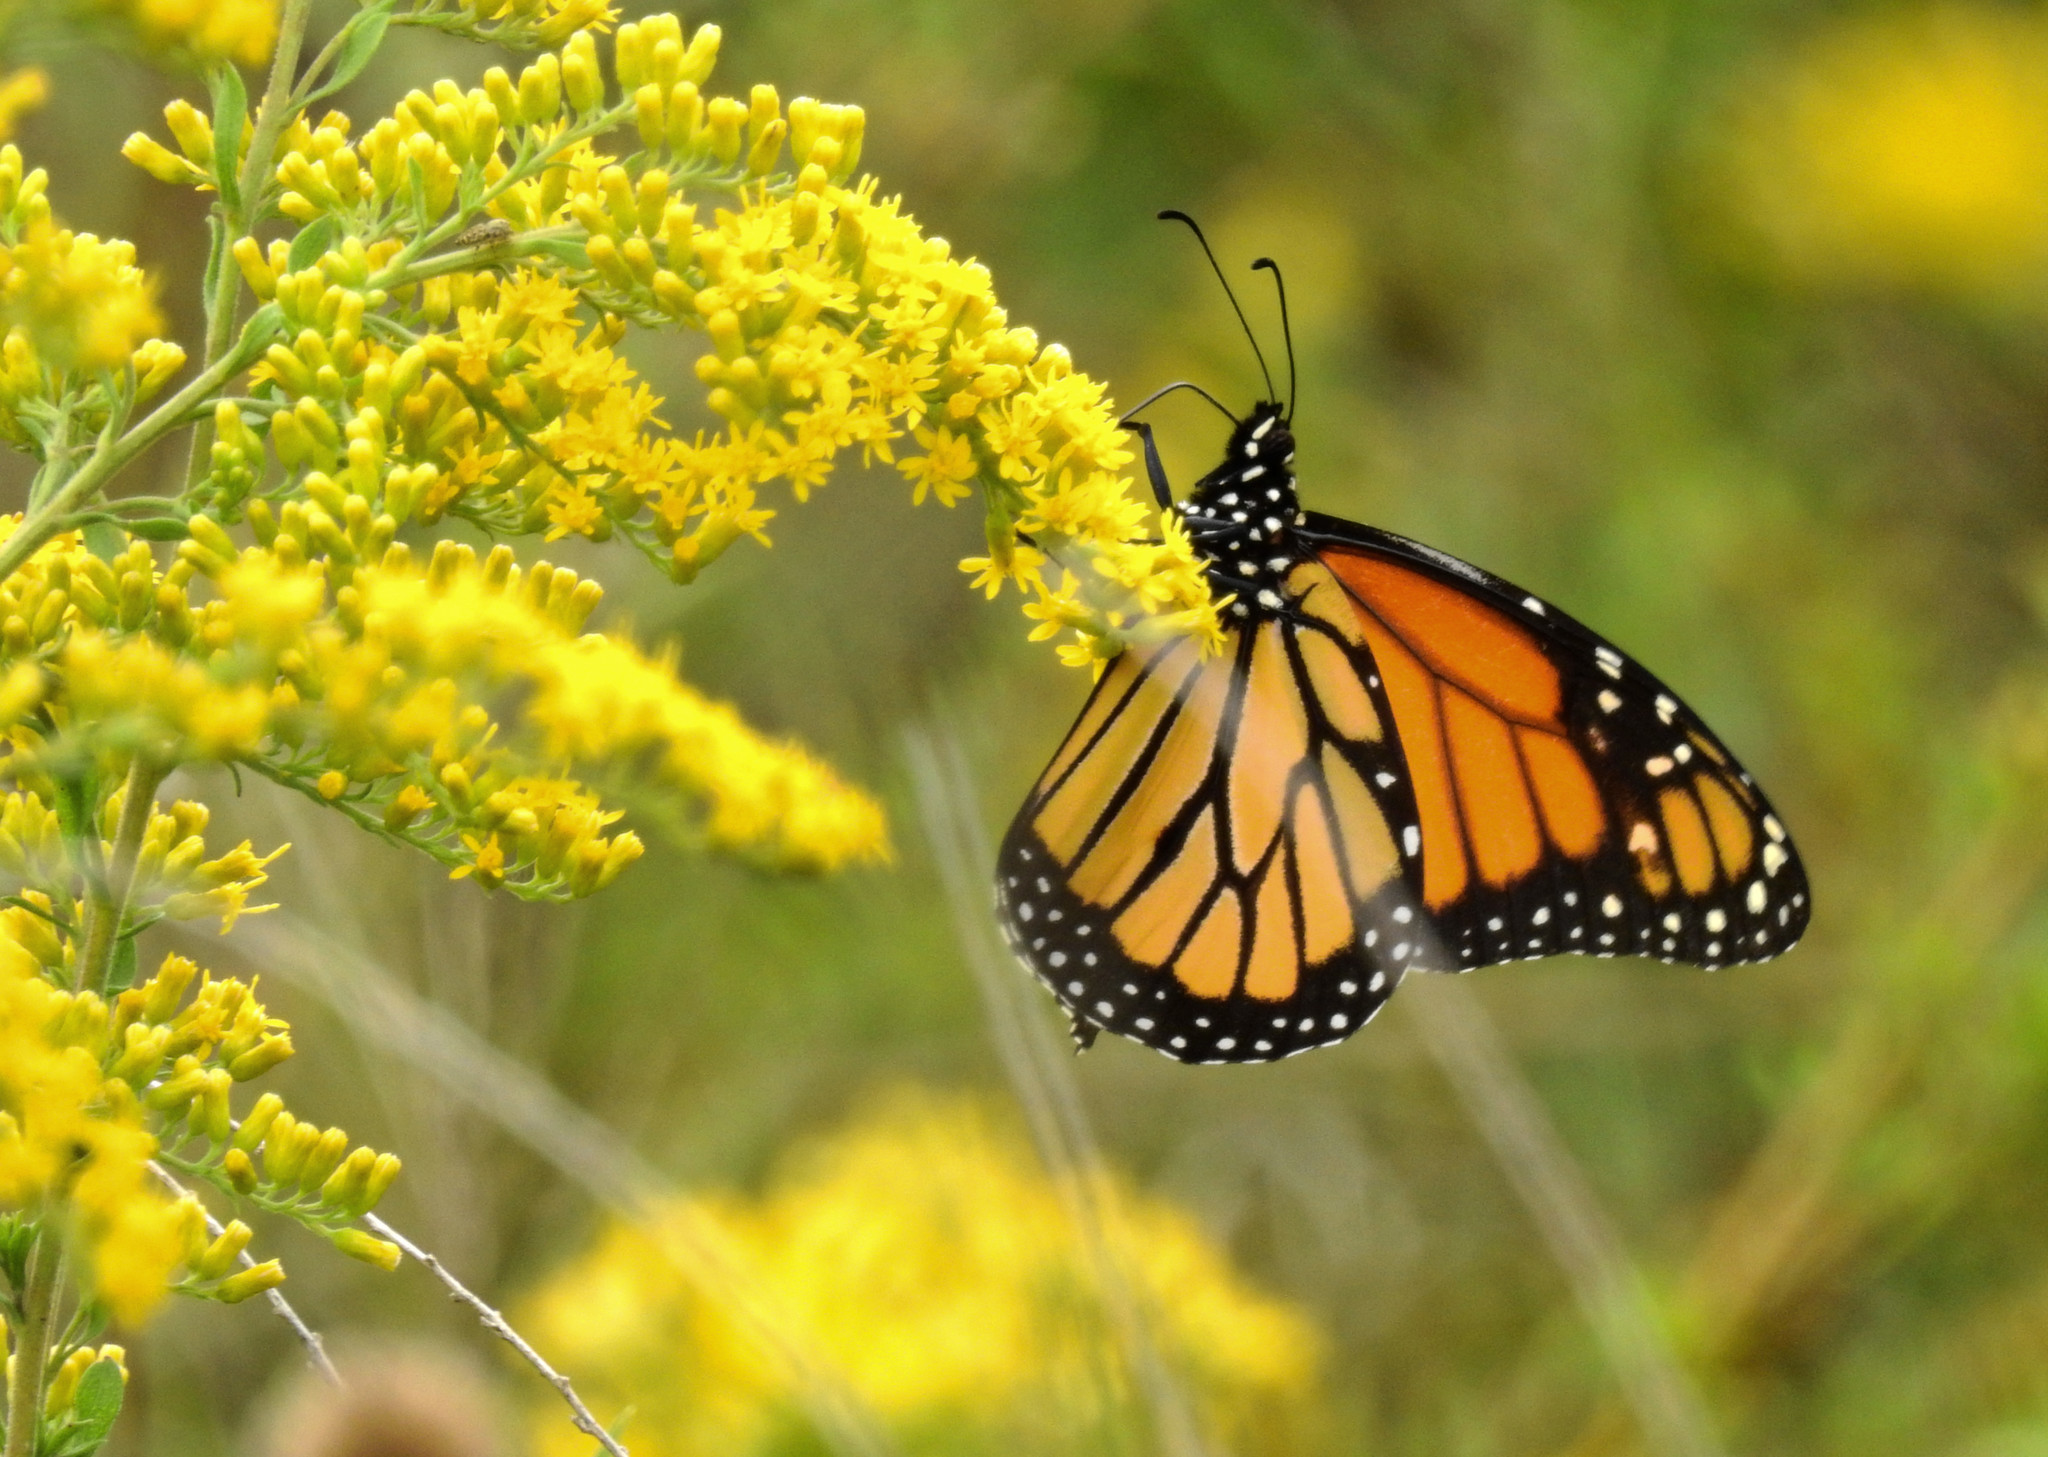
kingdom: Animalia
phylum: Arthropoda
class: Insecta
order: Lepidoptera
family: Nymphalidae
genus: Danaus
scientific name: Danaus plexippus
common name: Monarch
